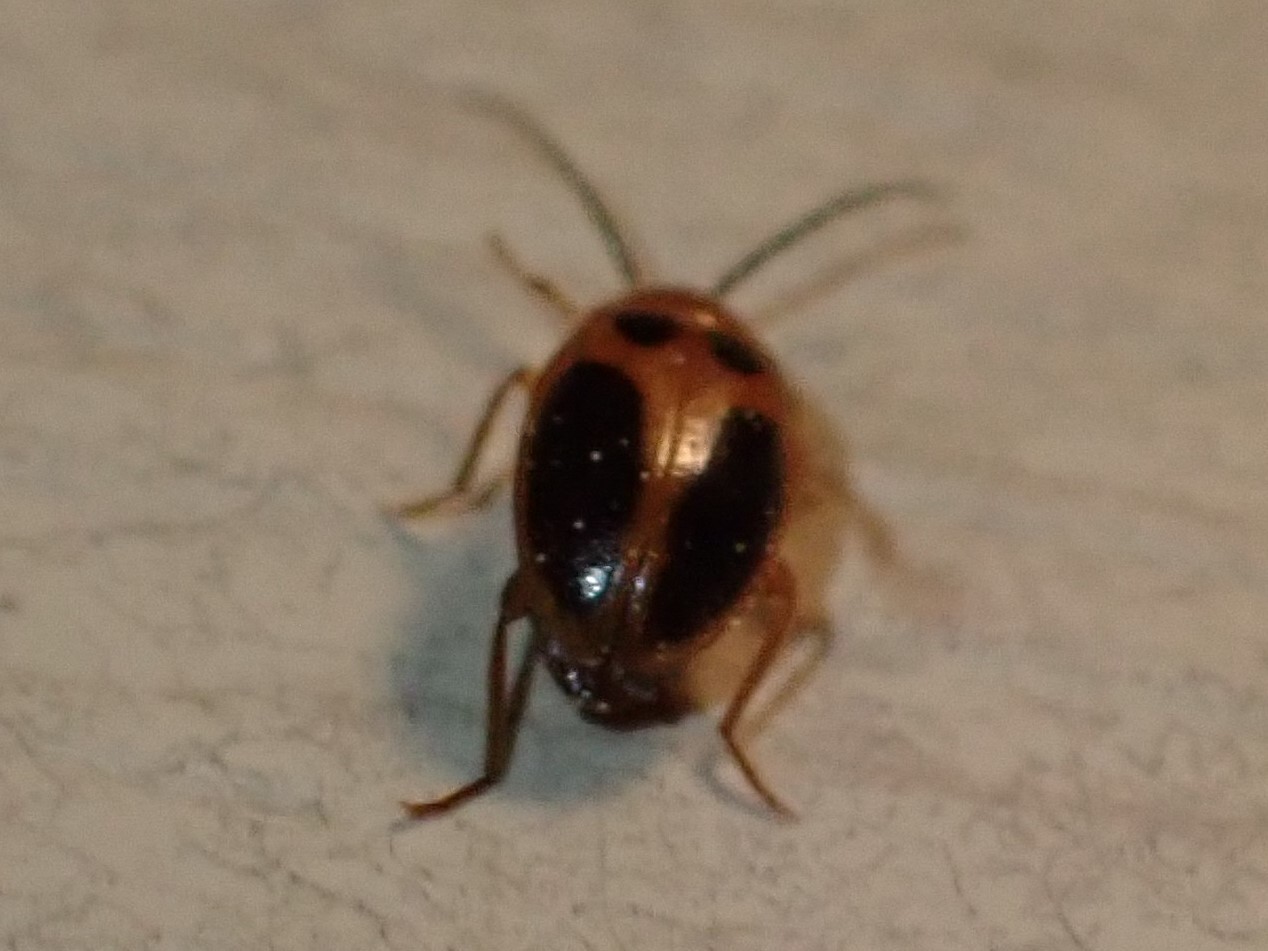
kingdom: Animalia
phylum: Arthropoda
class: Insecta
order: Coleoptera
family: Scirtidae
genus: Sacodes
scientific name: Sacodes pulchella
